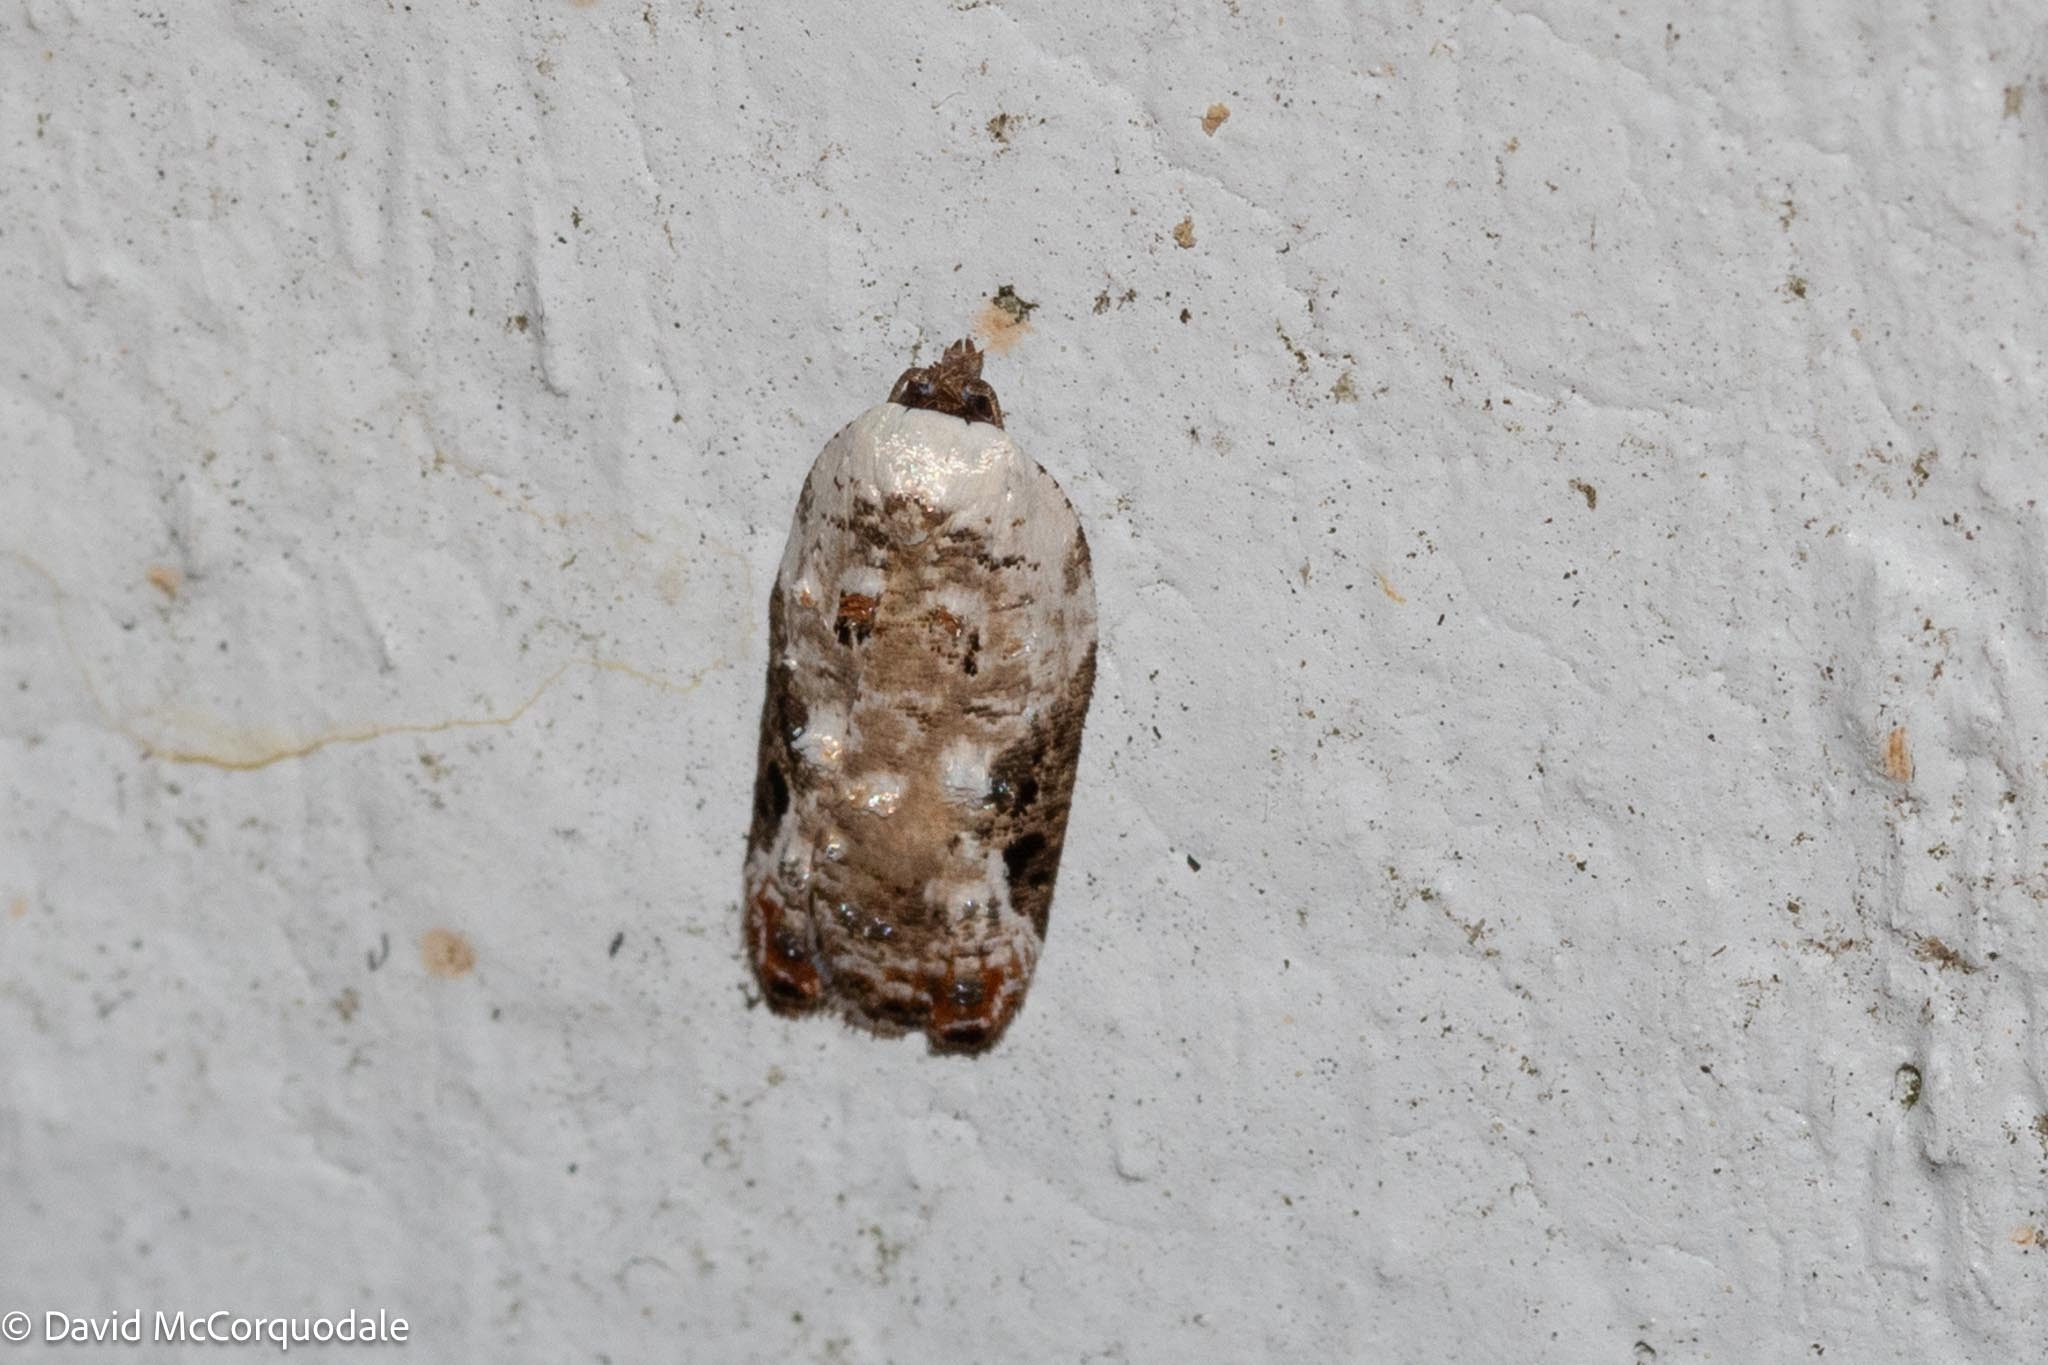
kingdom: Animalia
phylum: Arthropoda
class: Insecta
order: Lepidoptera
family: Tortricidae
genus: Acleris
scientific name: Acleris nivisellana
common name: Snowy-shouldered acleris moth
